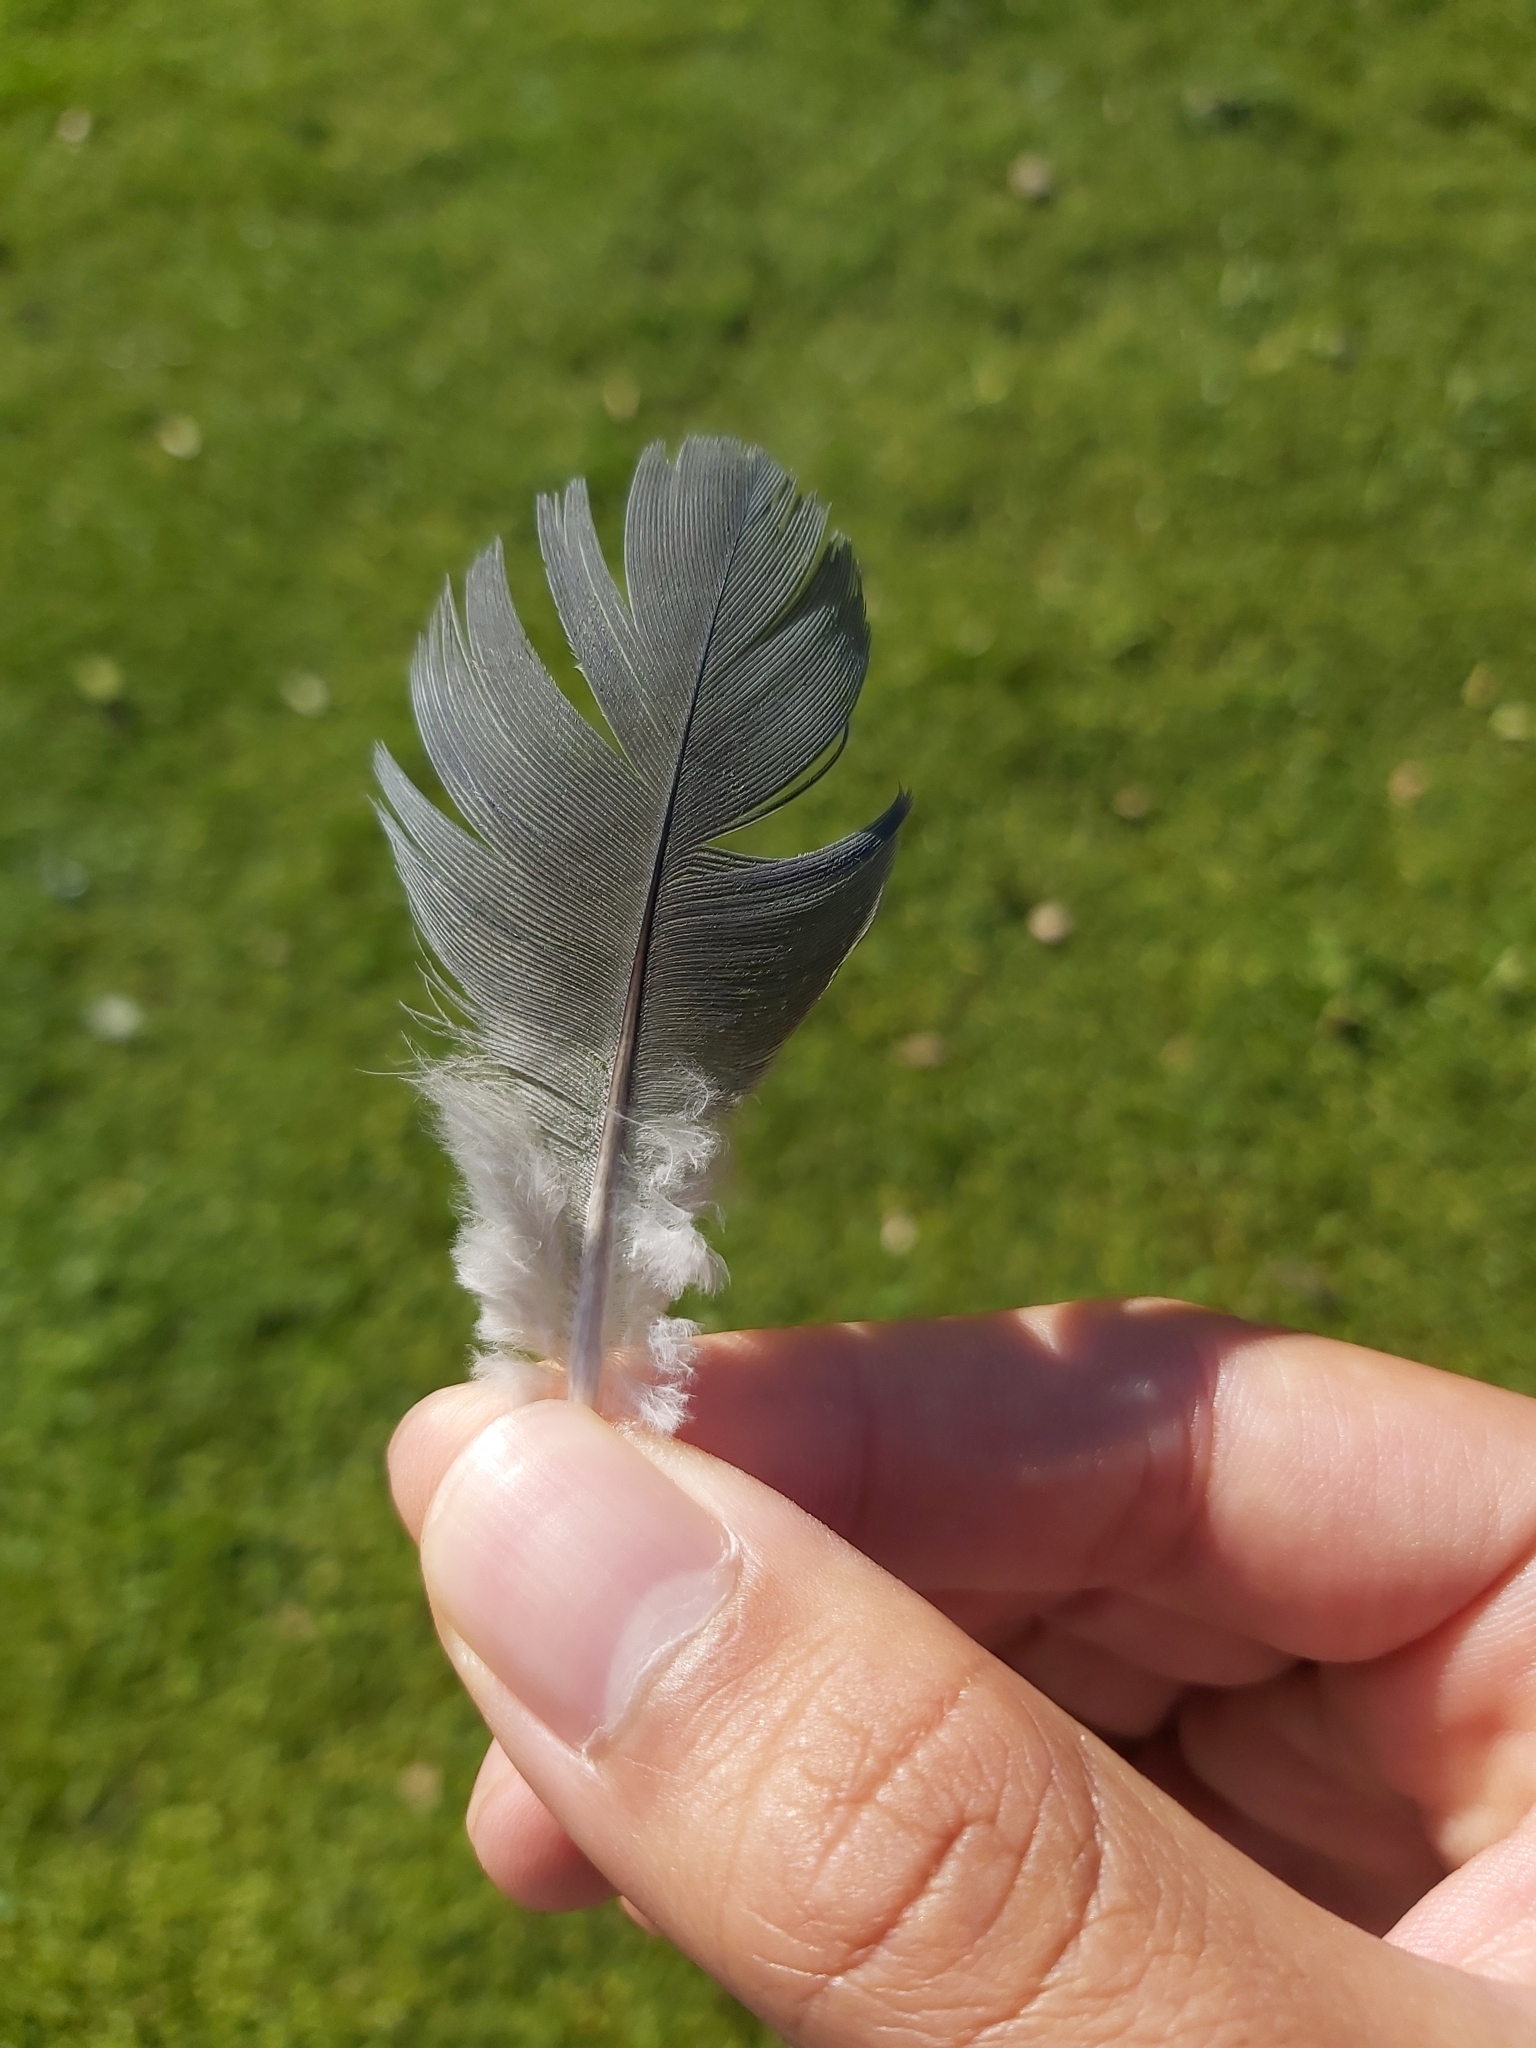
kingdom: Animalia
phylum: Chordata
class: Aves
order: Columbiformes
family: Columbidae
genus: Columba
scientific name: Columba livia
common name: Rock pigeon
